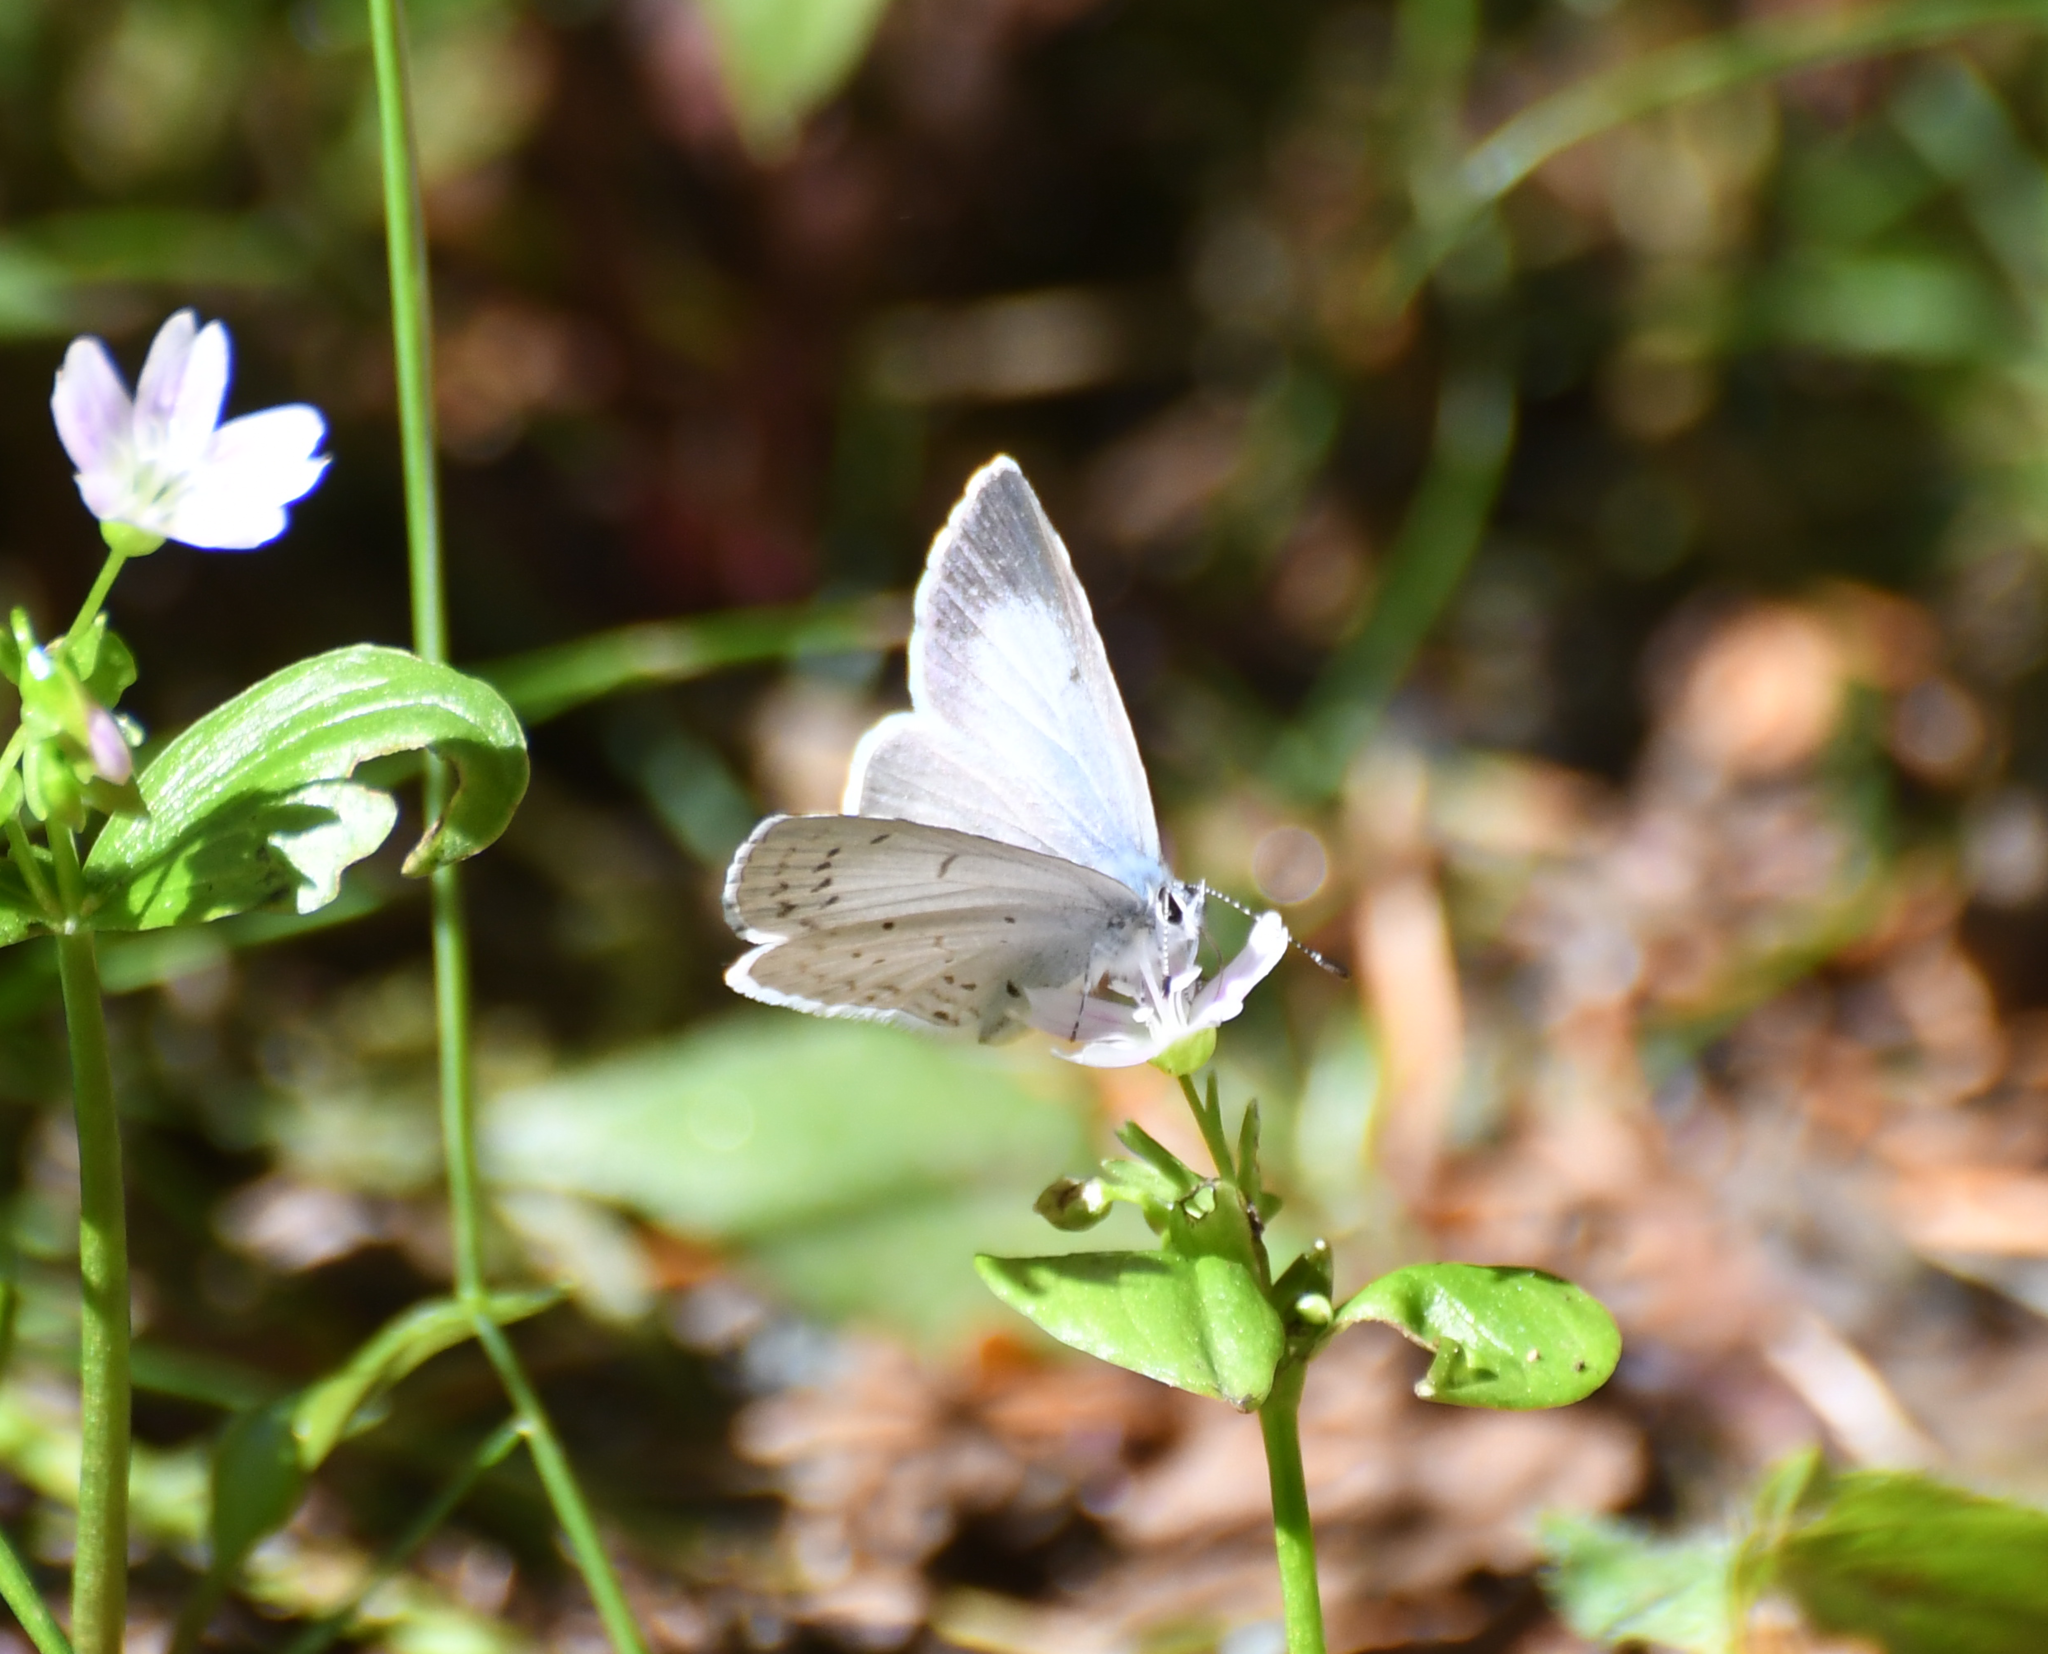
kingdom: Animalia
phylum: Arthropoda
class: Insecta
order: Lepidoptera
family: Lycaenidae
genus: Celastrina
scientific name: Celastrina ladon
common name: Spring azure
